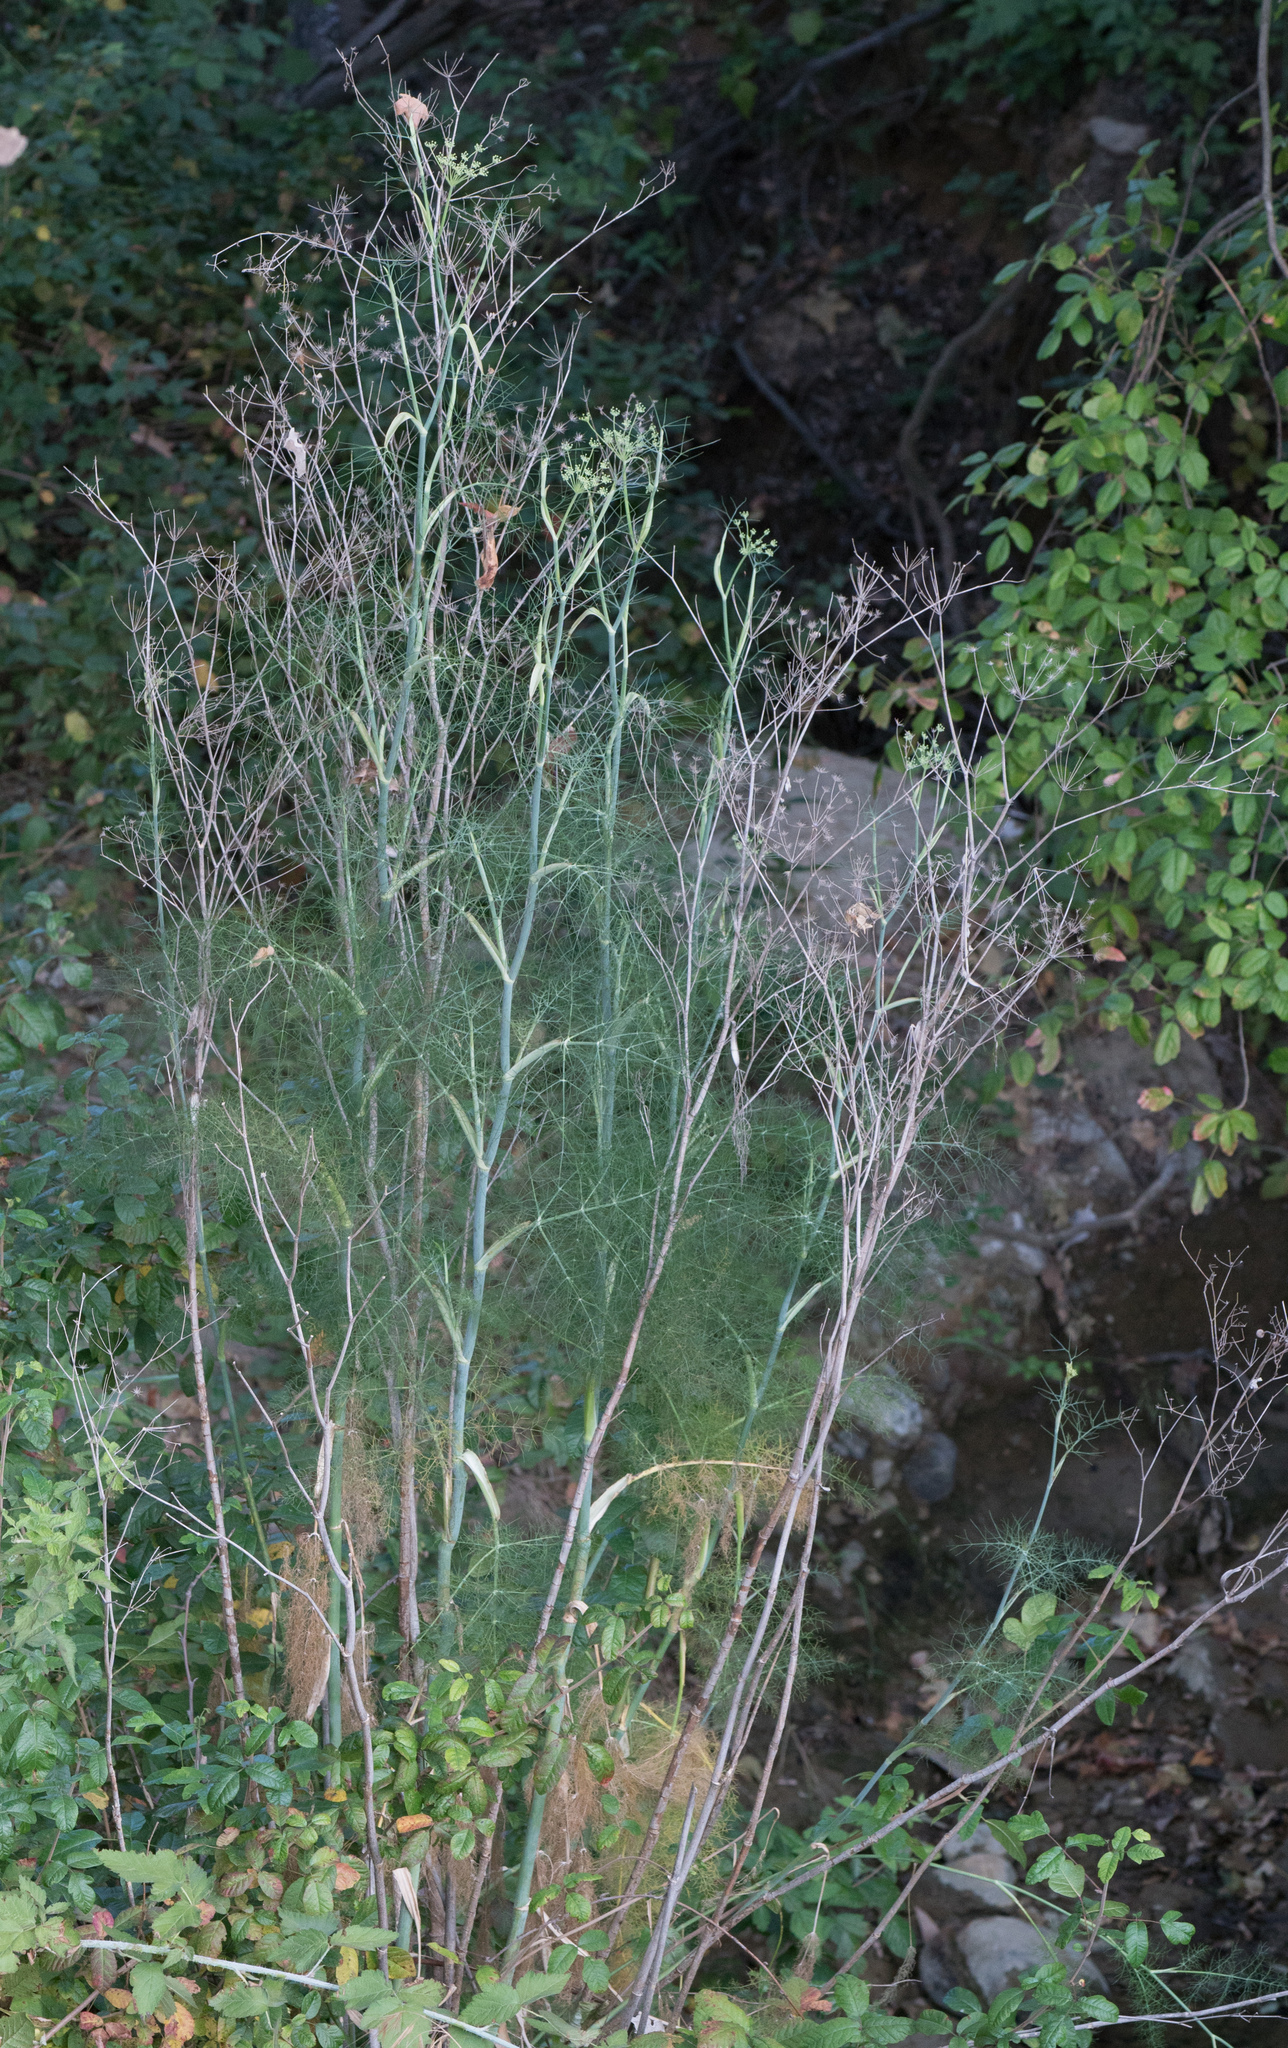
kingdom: Plantae
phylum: Tracheophyta
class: Magnoliopsida
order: Apiales
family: Apiaceae
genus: Foeniculum
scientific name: Foeniculum vulgare
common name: Fennel
